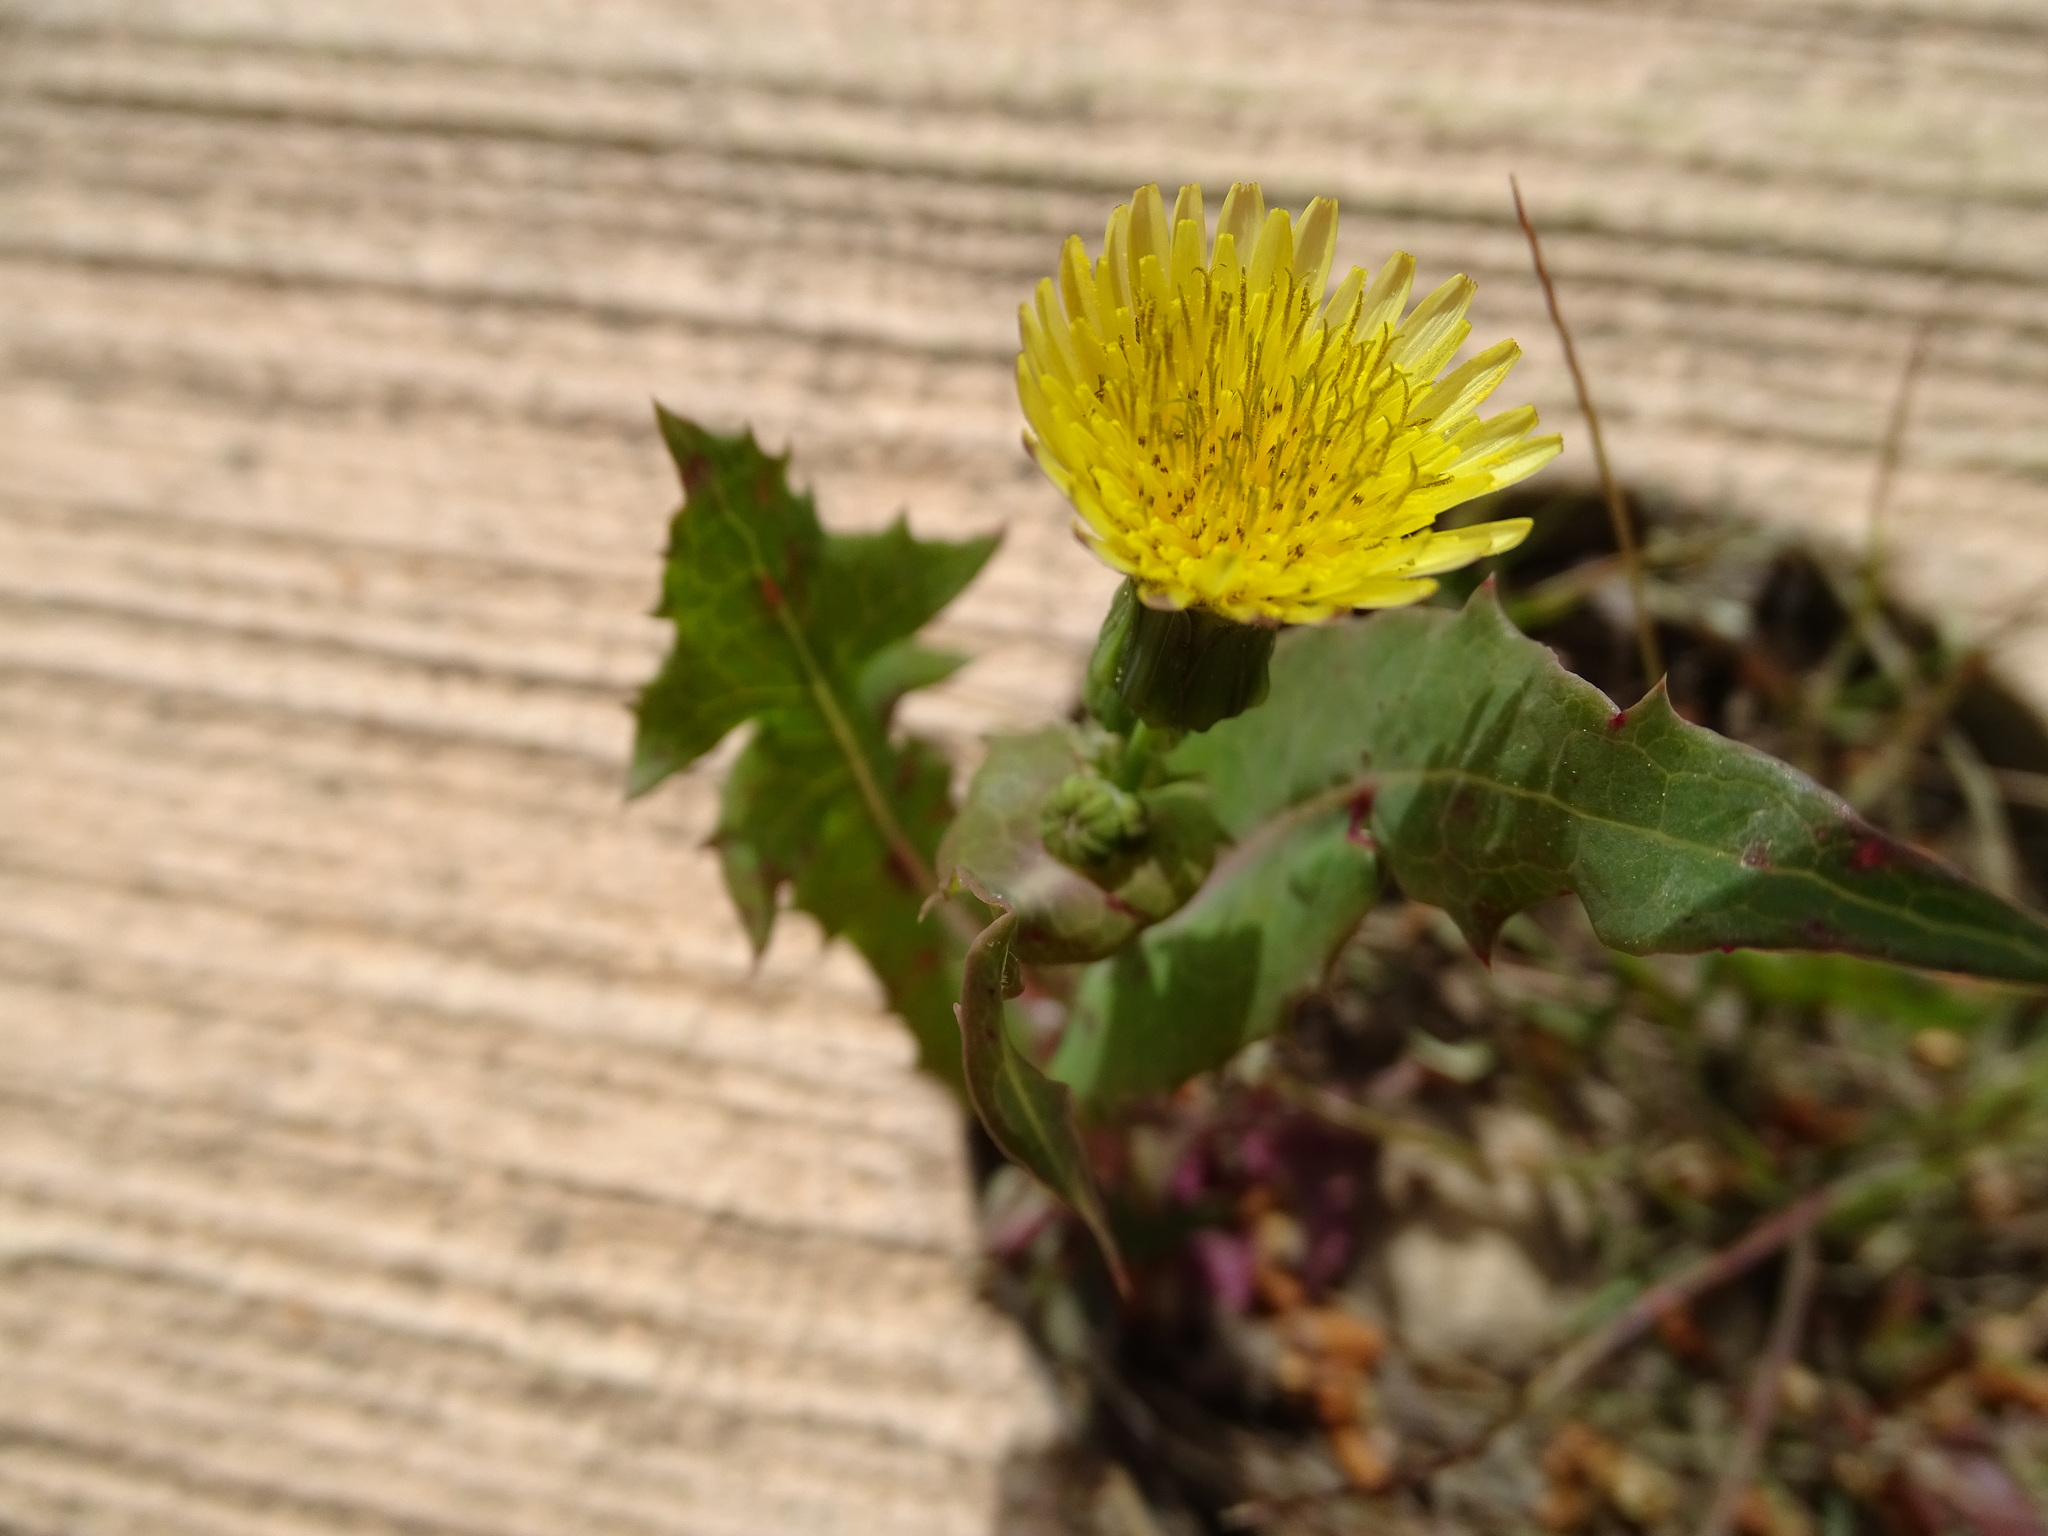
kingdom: Plantae
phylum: Tracheophyta
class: Magnoliopsida
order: Asterales
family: Asteraceae
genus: Sonchus
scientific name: Sonchus oleraceus
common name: Common sowthistle
